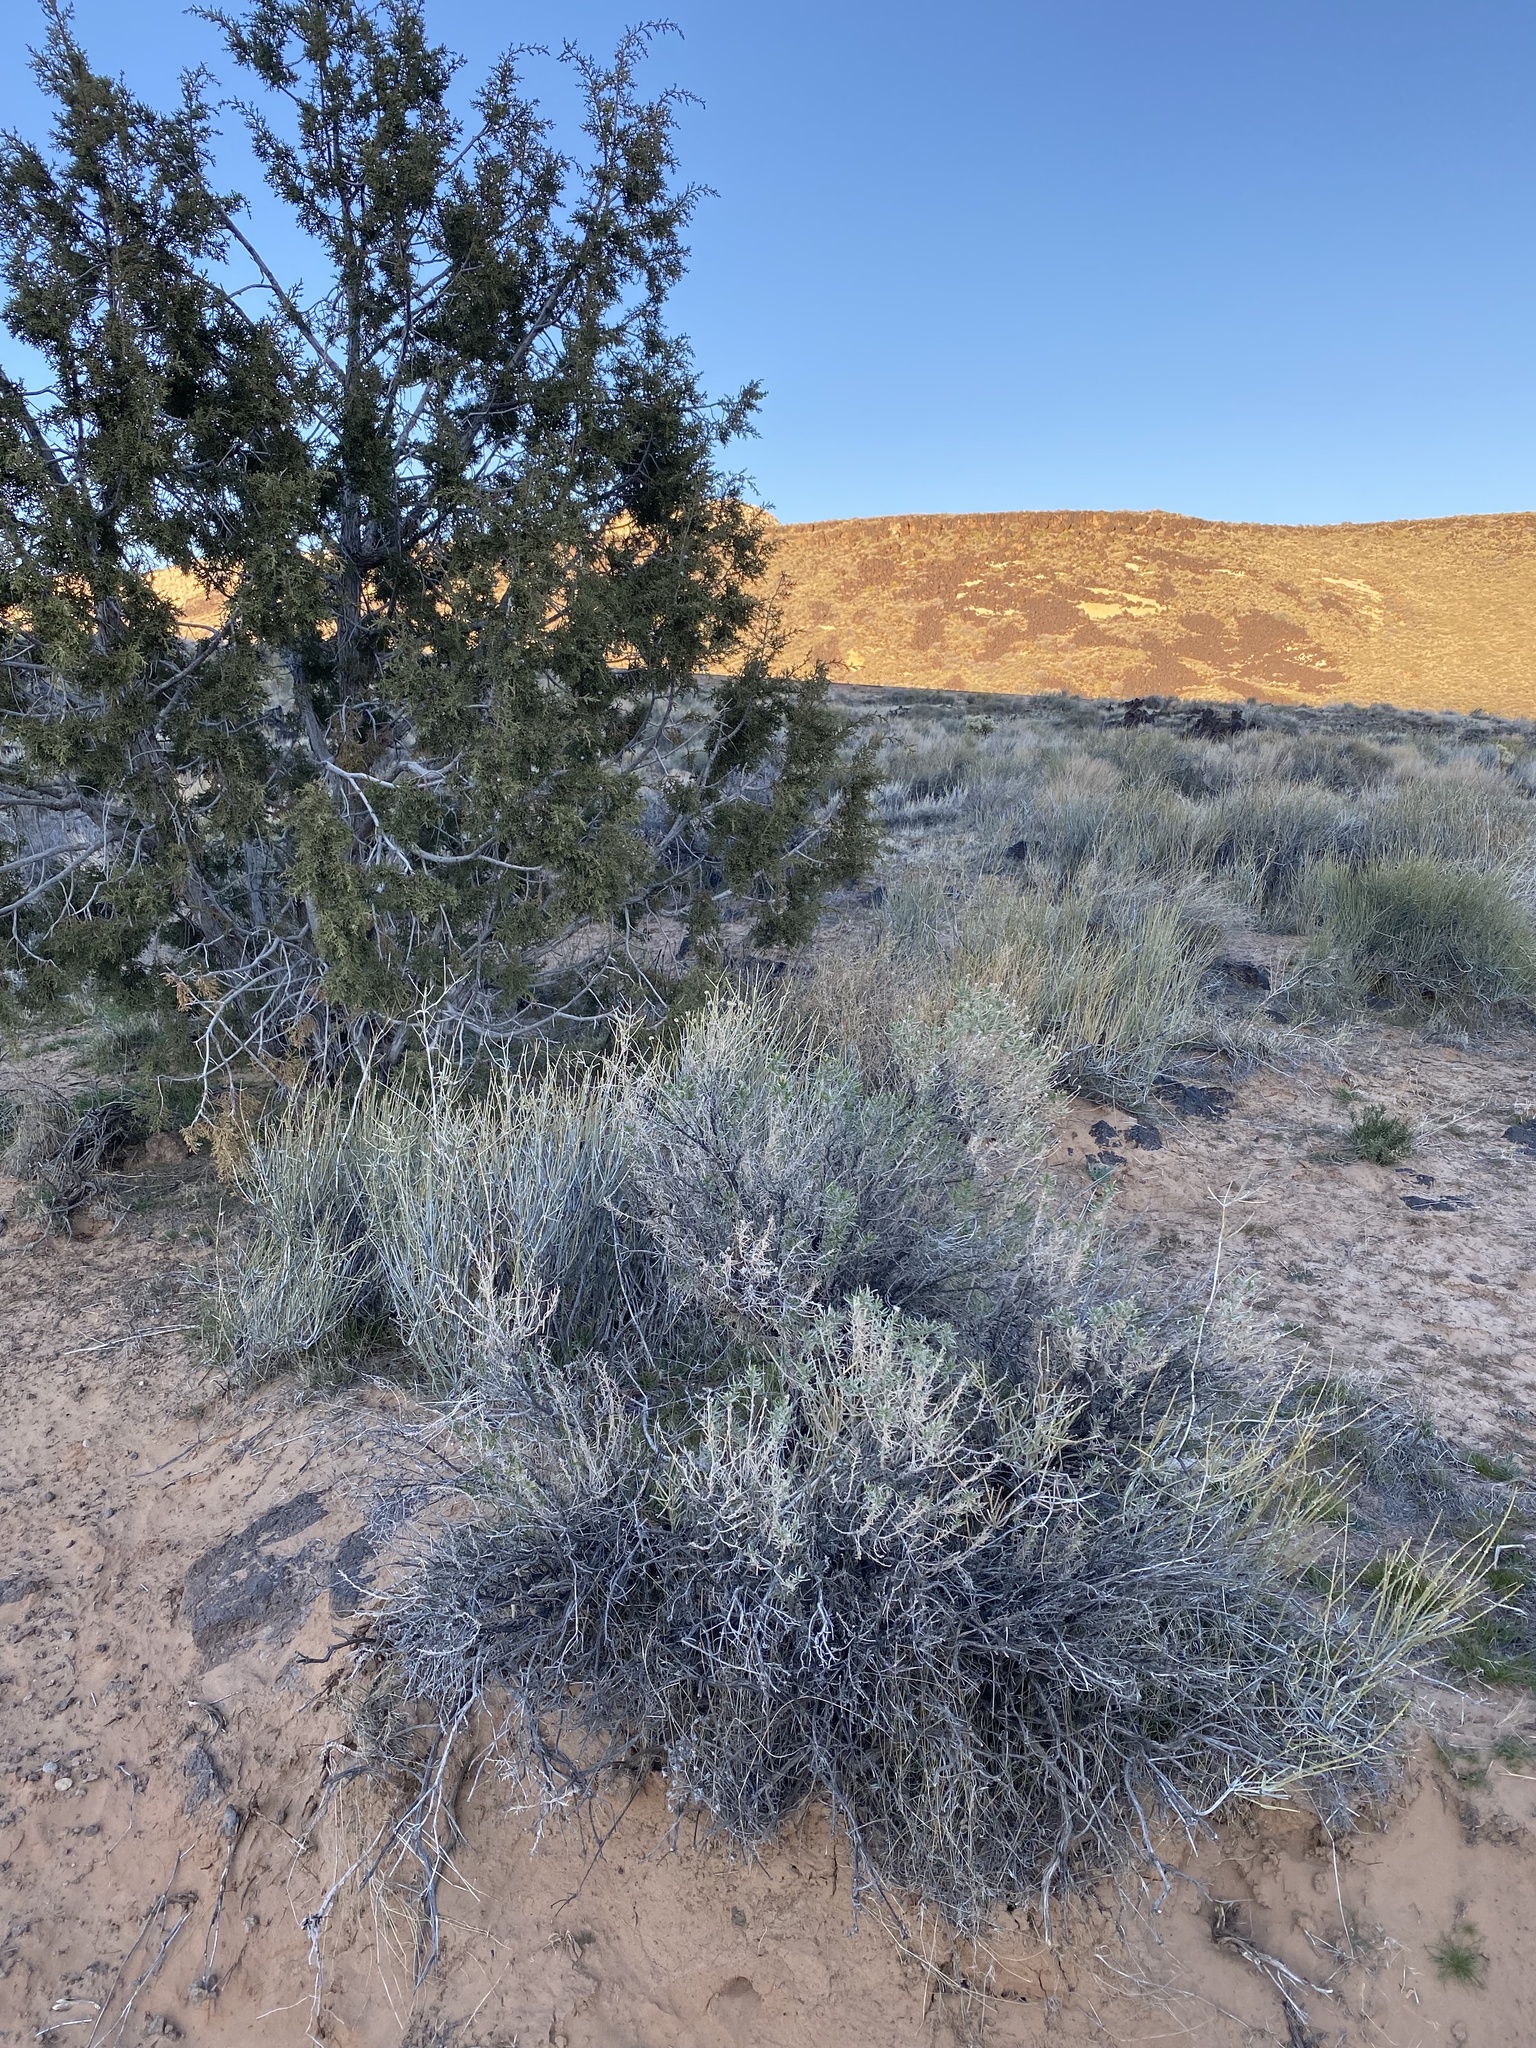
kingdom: Plantae
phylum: Tracheophyta
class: Magnoliopsida
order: Asterales
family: Asteraceae
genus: Ericameria
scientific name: Ericameria linearifolia
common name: Interior goldenbush
